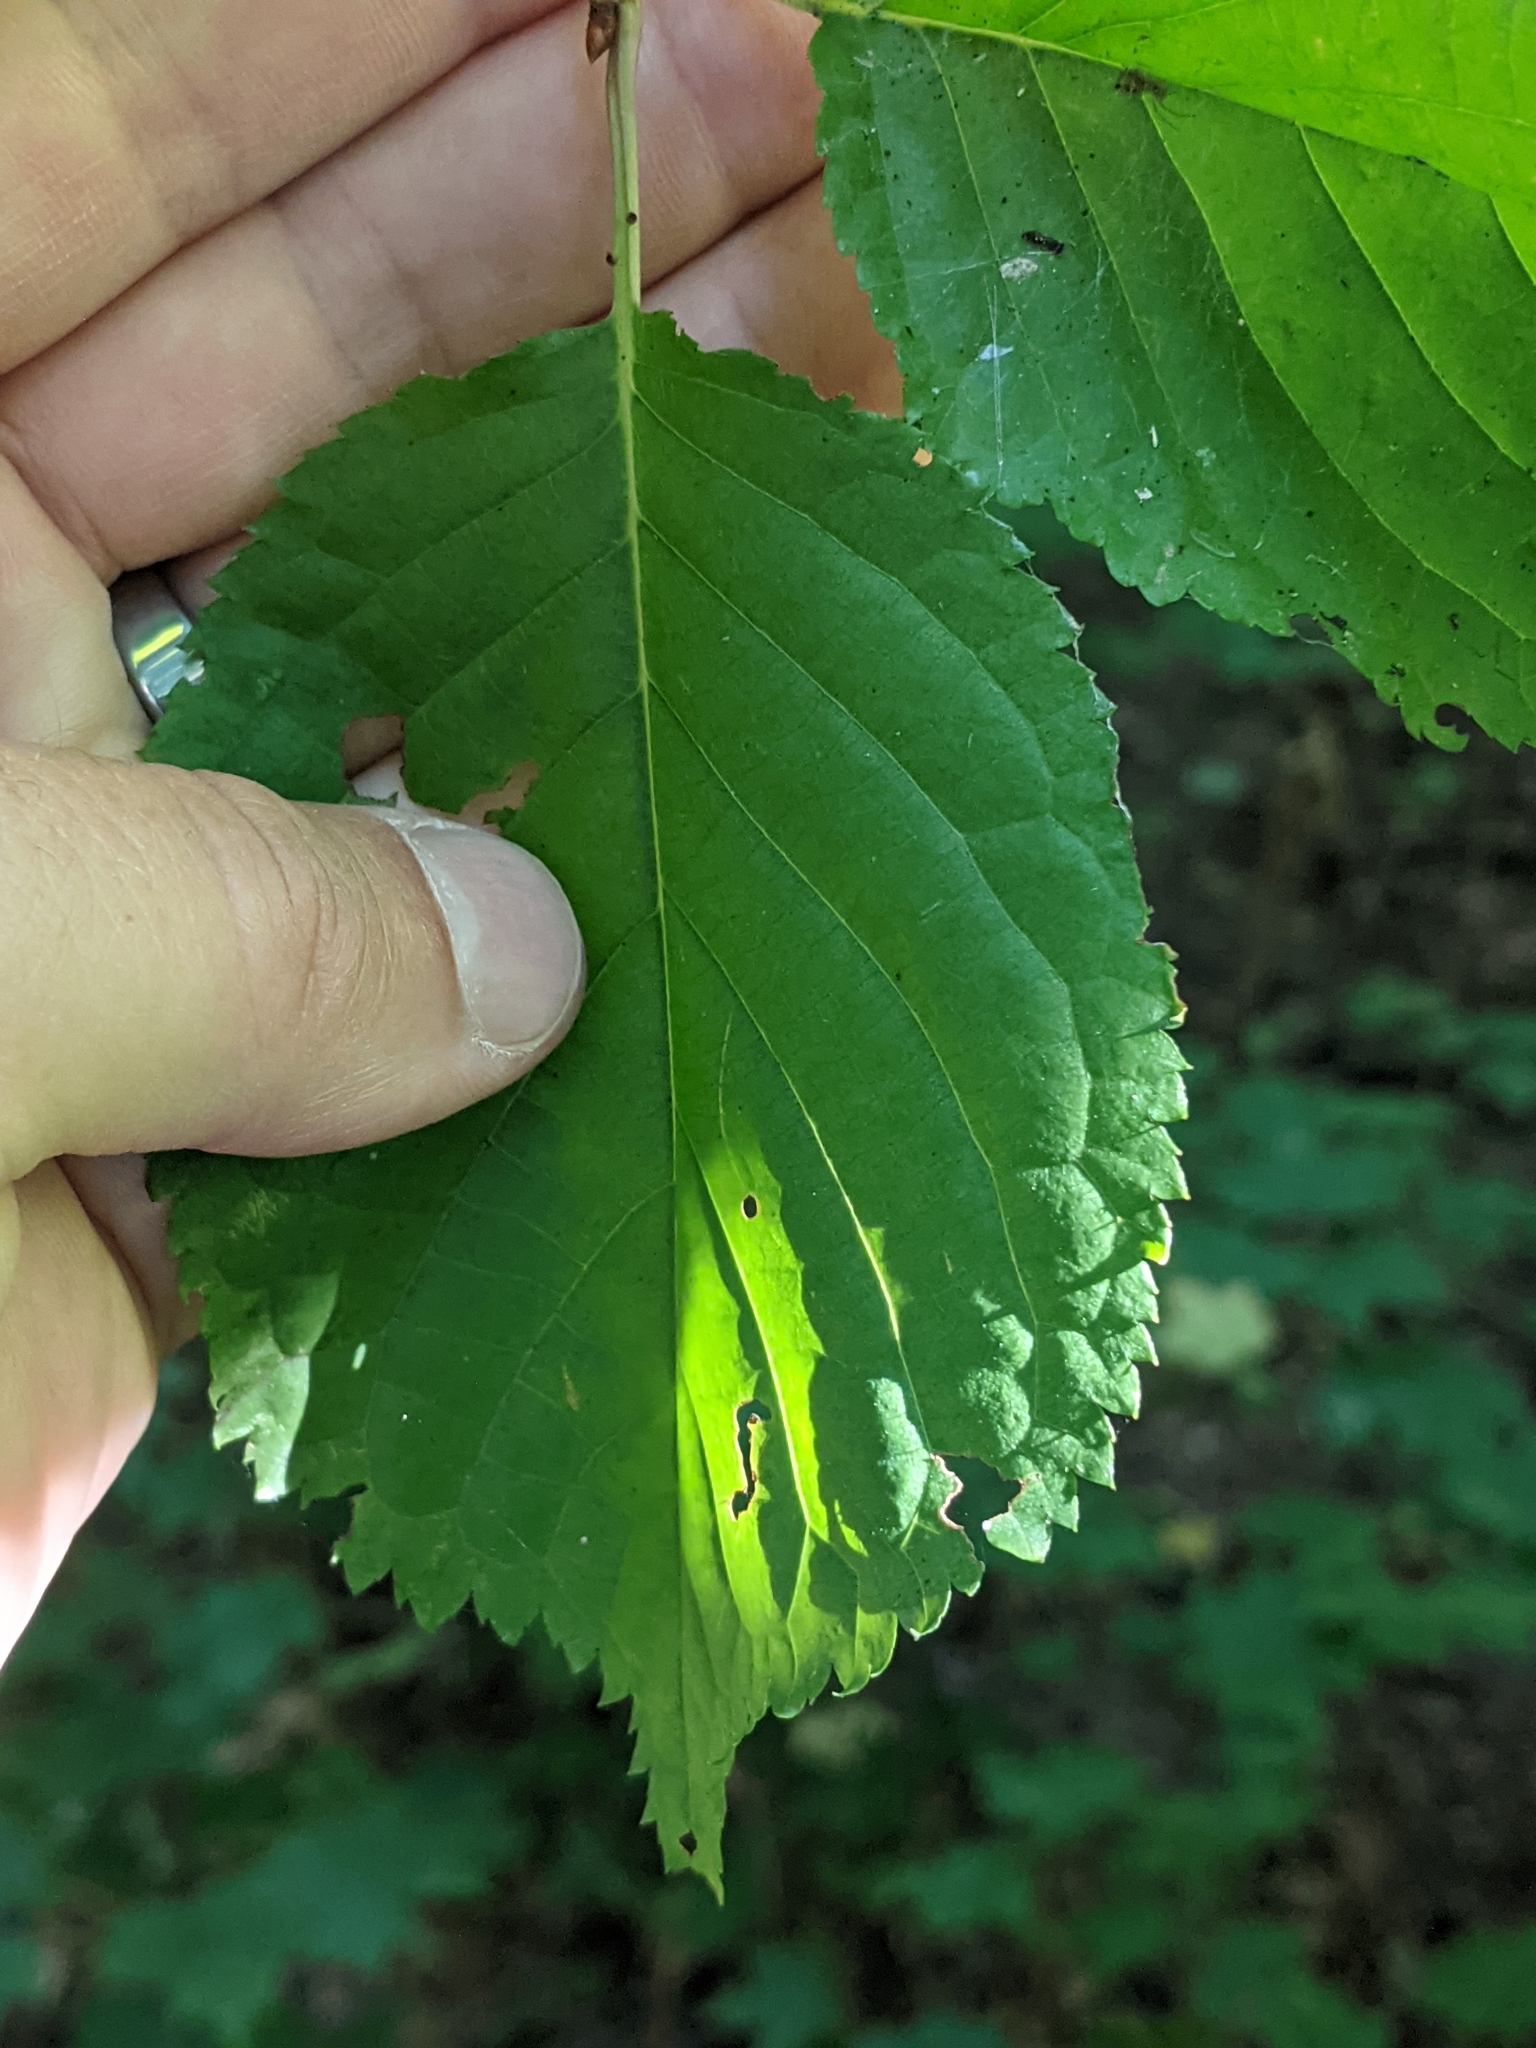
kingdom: Plantae
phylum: Tracheophyta
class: Magnoliopsida
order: Rosales
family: Rosaceae
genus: Prunus
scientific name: Prunus avium
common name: Sweet cherry
